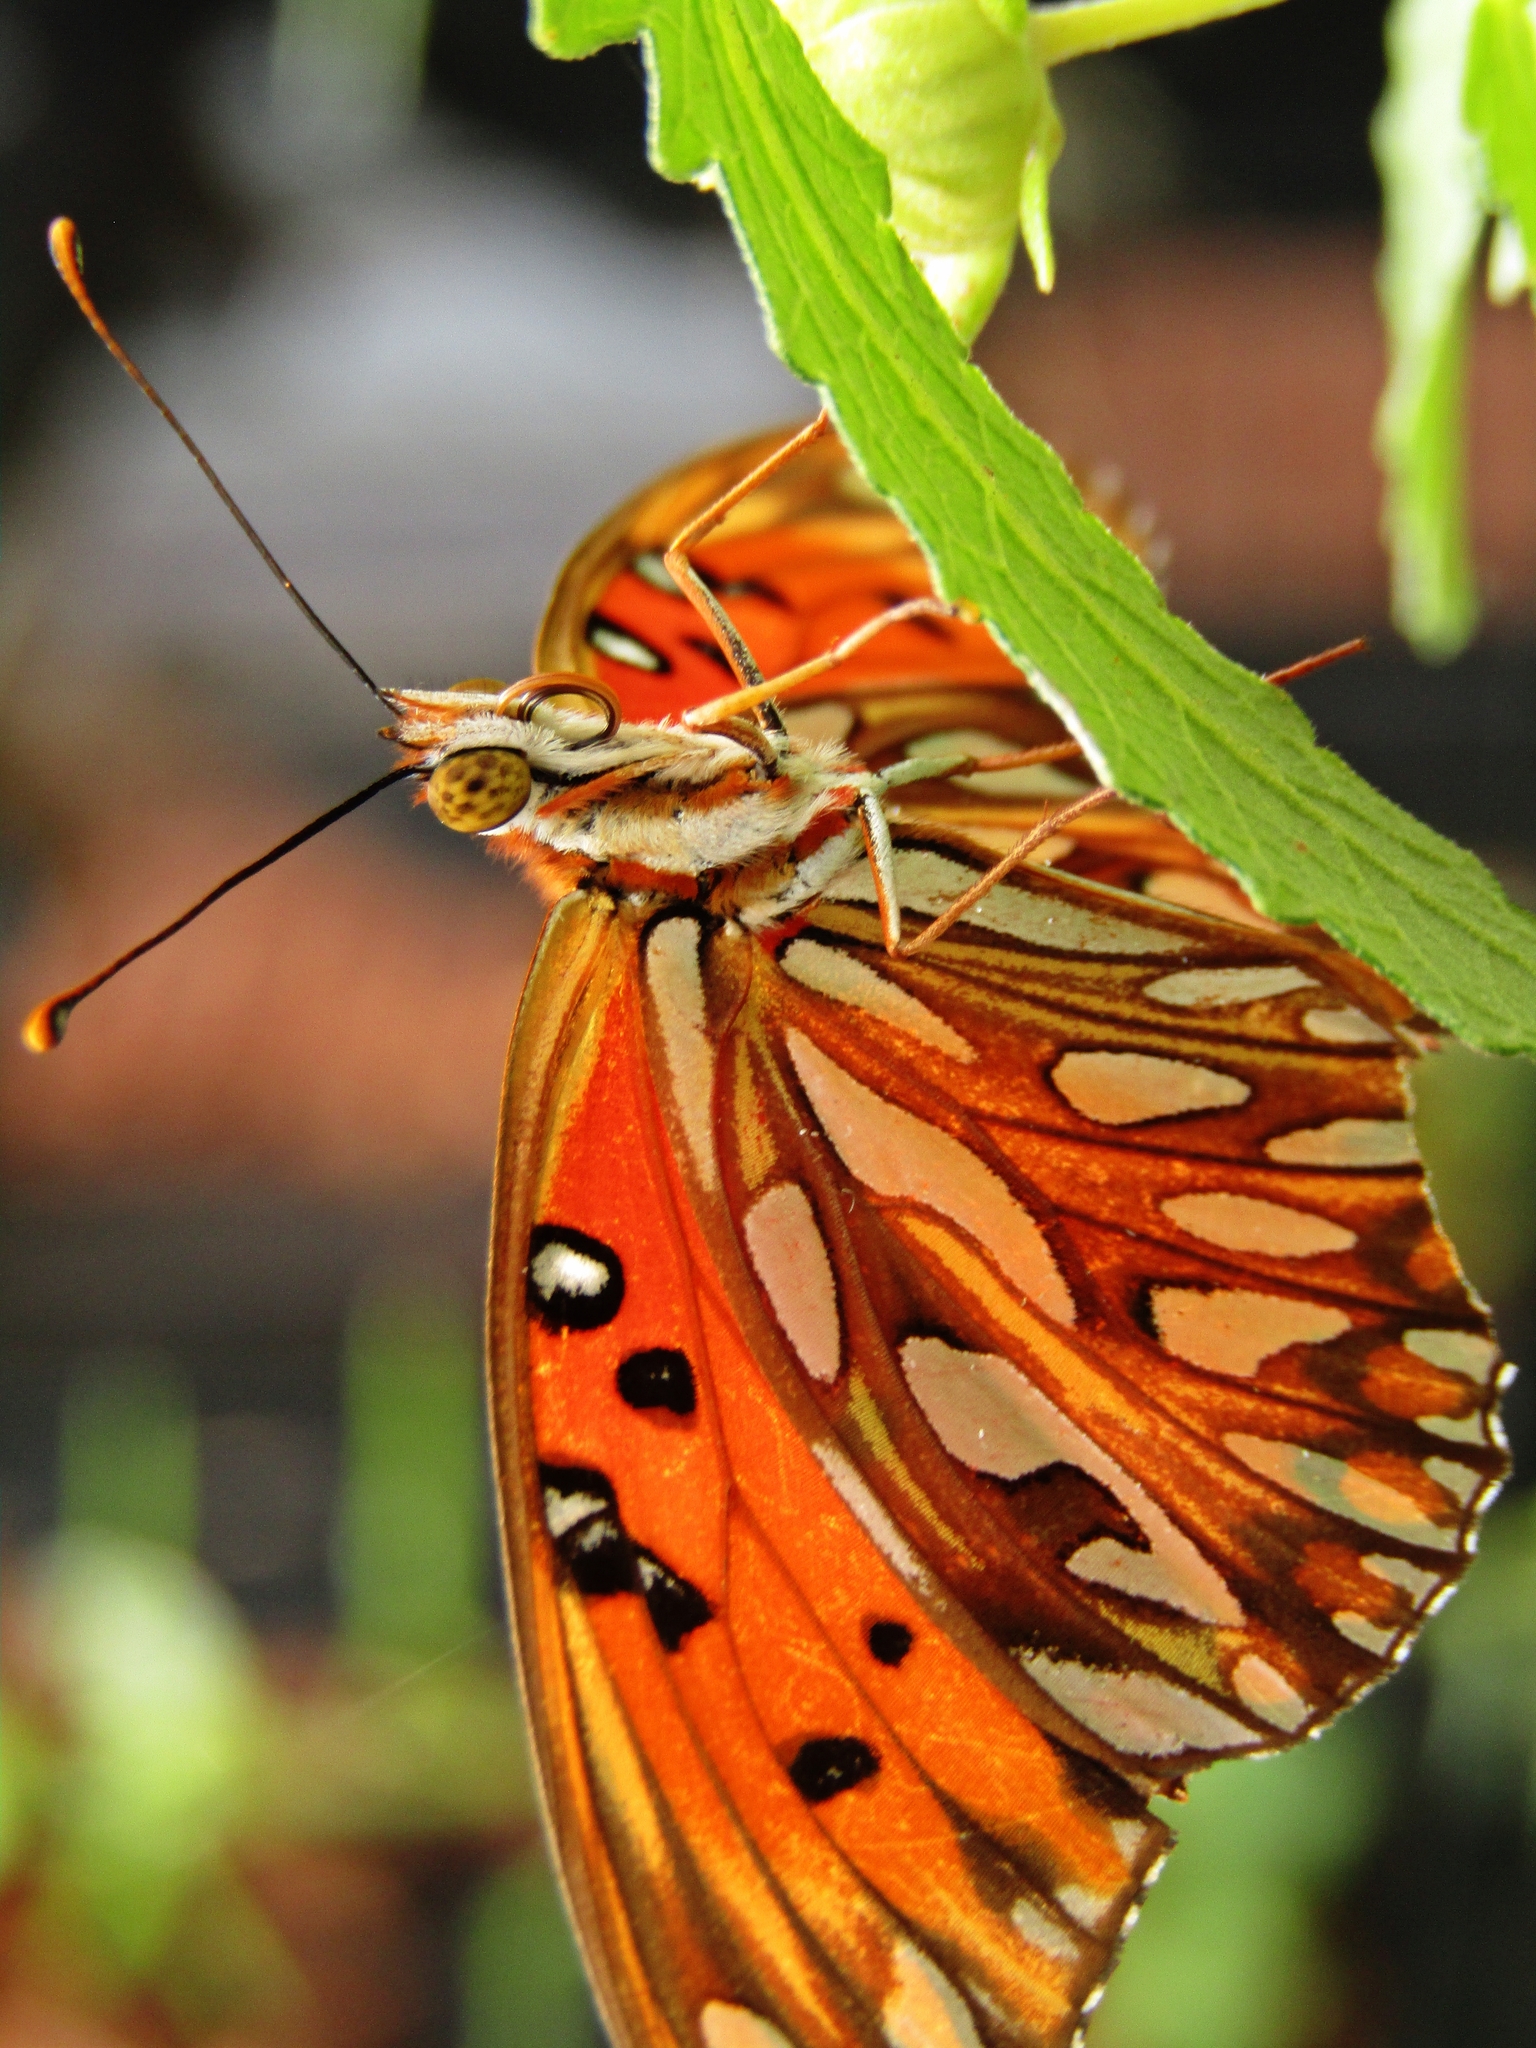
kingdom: Animalia
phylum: Arthropoda
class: Insecta
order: Lepidoptera
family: Nymphalidae
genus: Dione
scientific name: Dione vanillae
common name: Gulf fritillary
